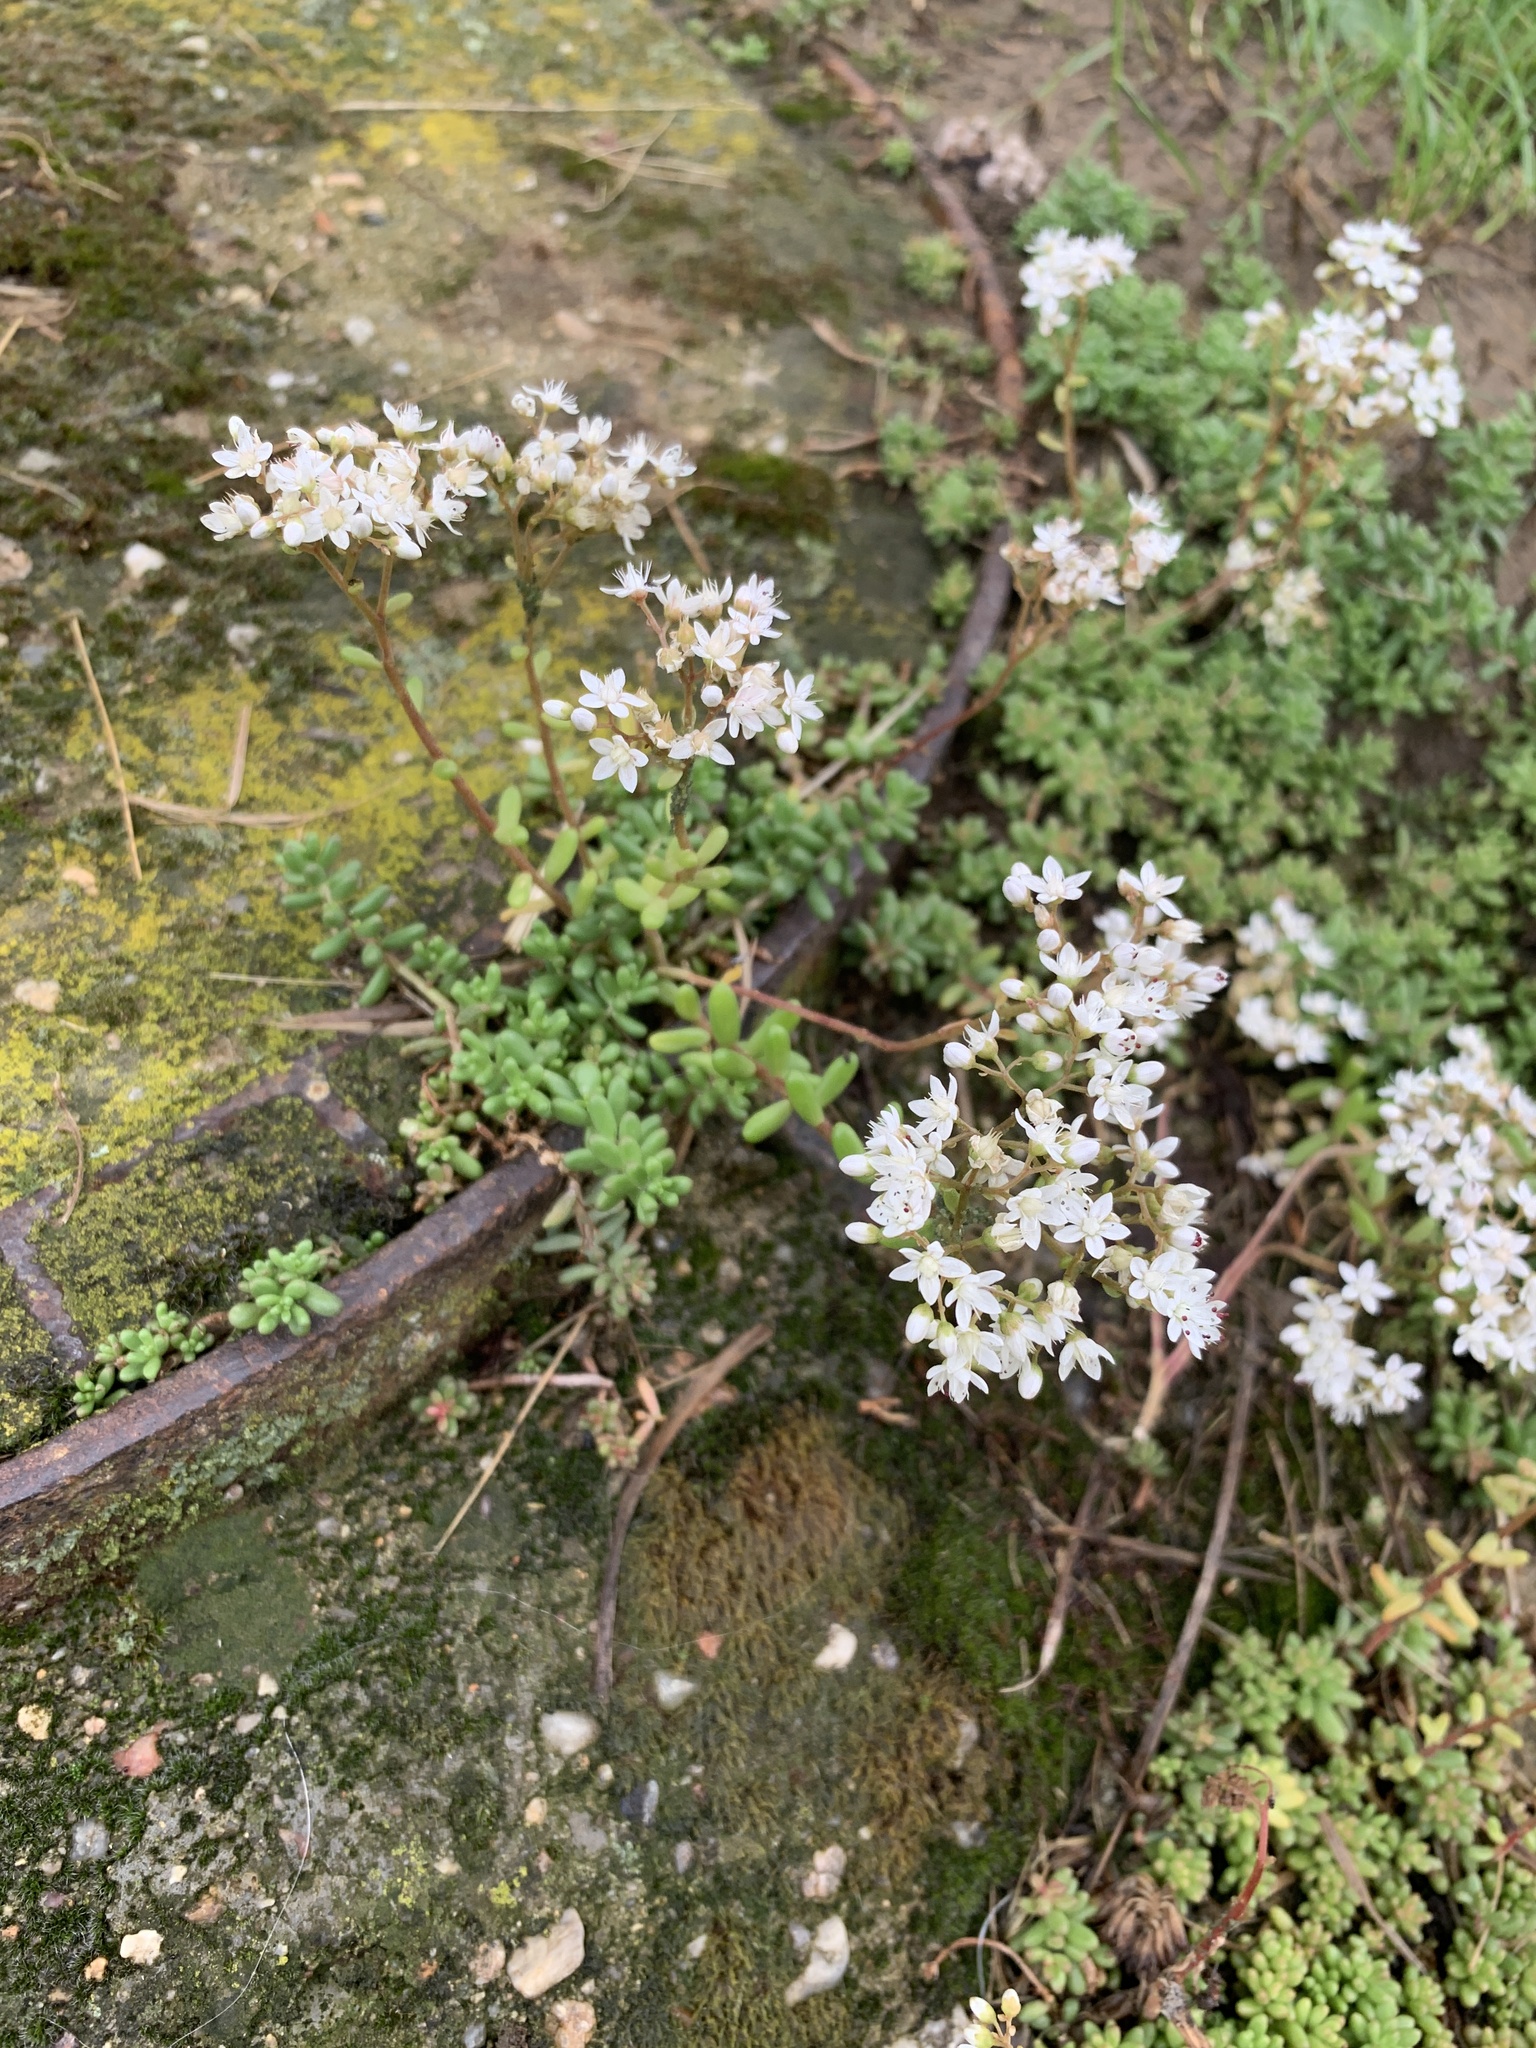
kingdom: Plantae
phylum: Tracheophyta
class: Magnoliopsida
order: Saxifragales
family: Crassulaceae
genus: Sedum
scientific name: Sedum album
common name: White stonecrop
